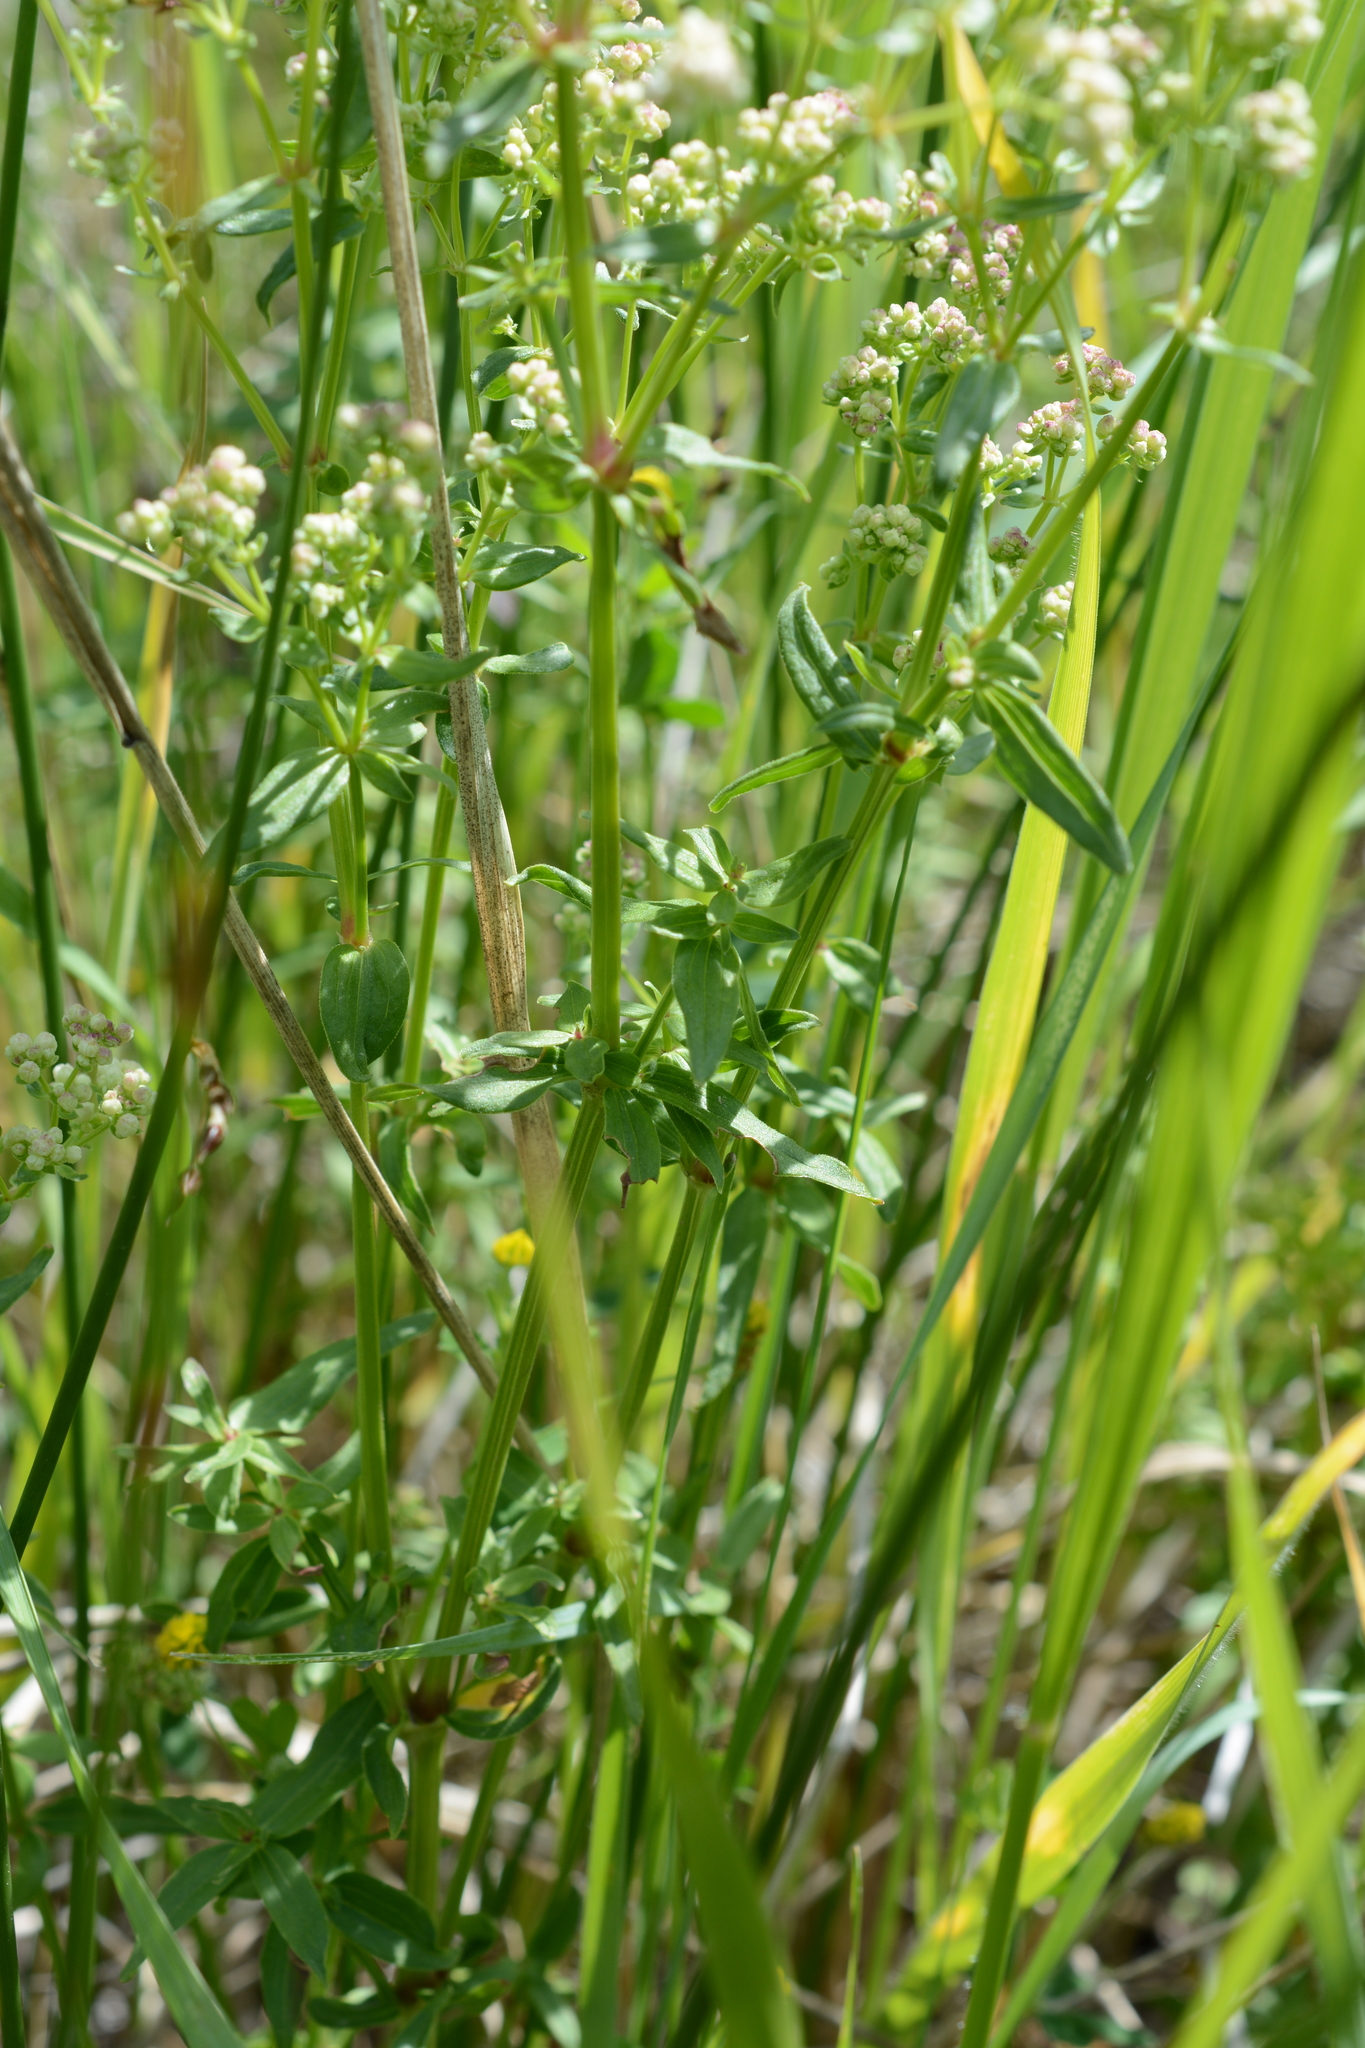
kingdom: Plantae
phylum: Tracheophyta
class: Magnoliopsida
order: Gentianales
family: Rubiaceae
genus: Galium
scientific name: Galium boreale
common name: Northern bedstraw
